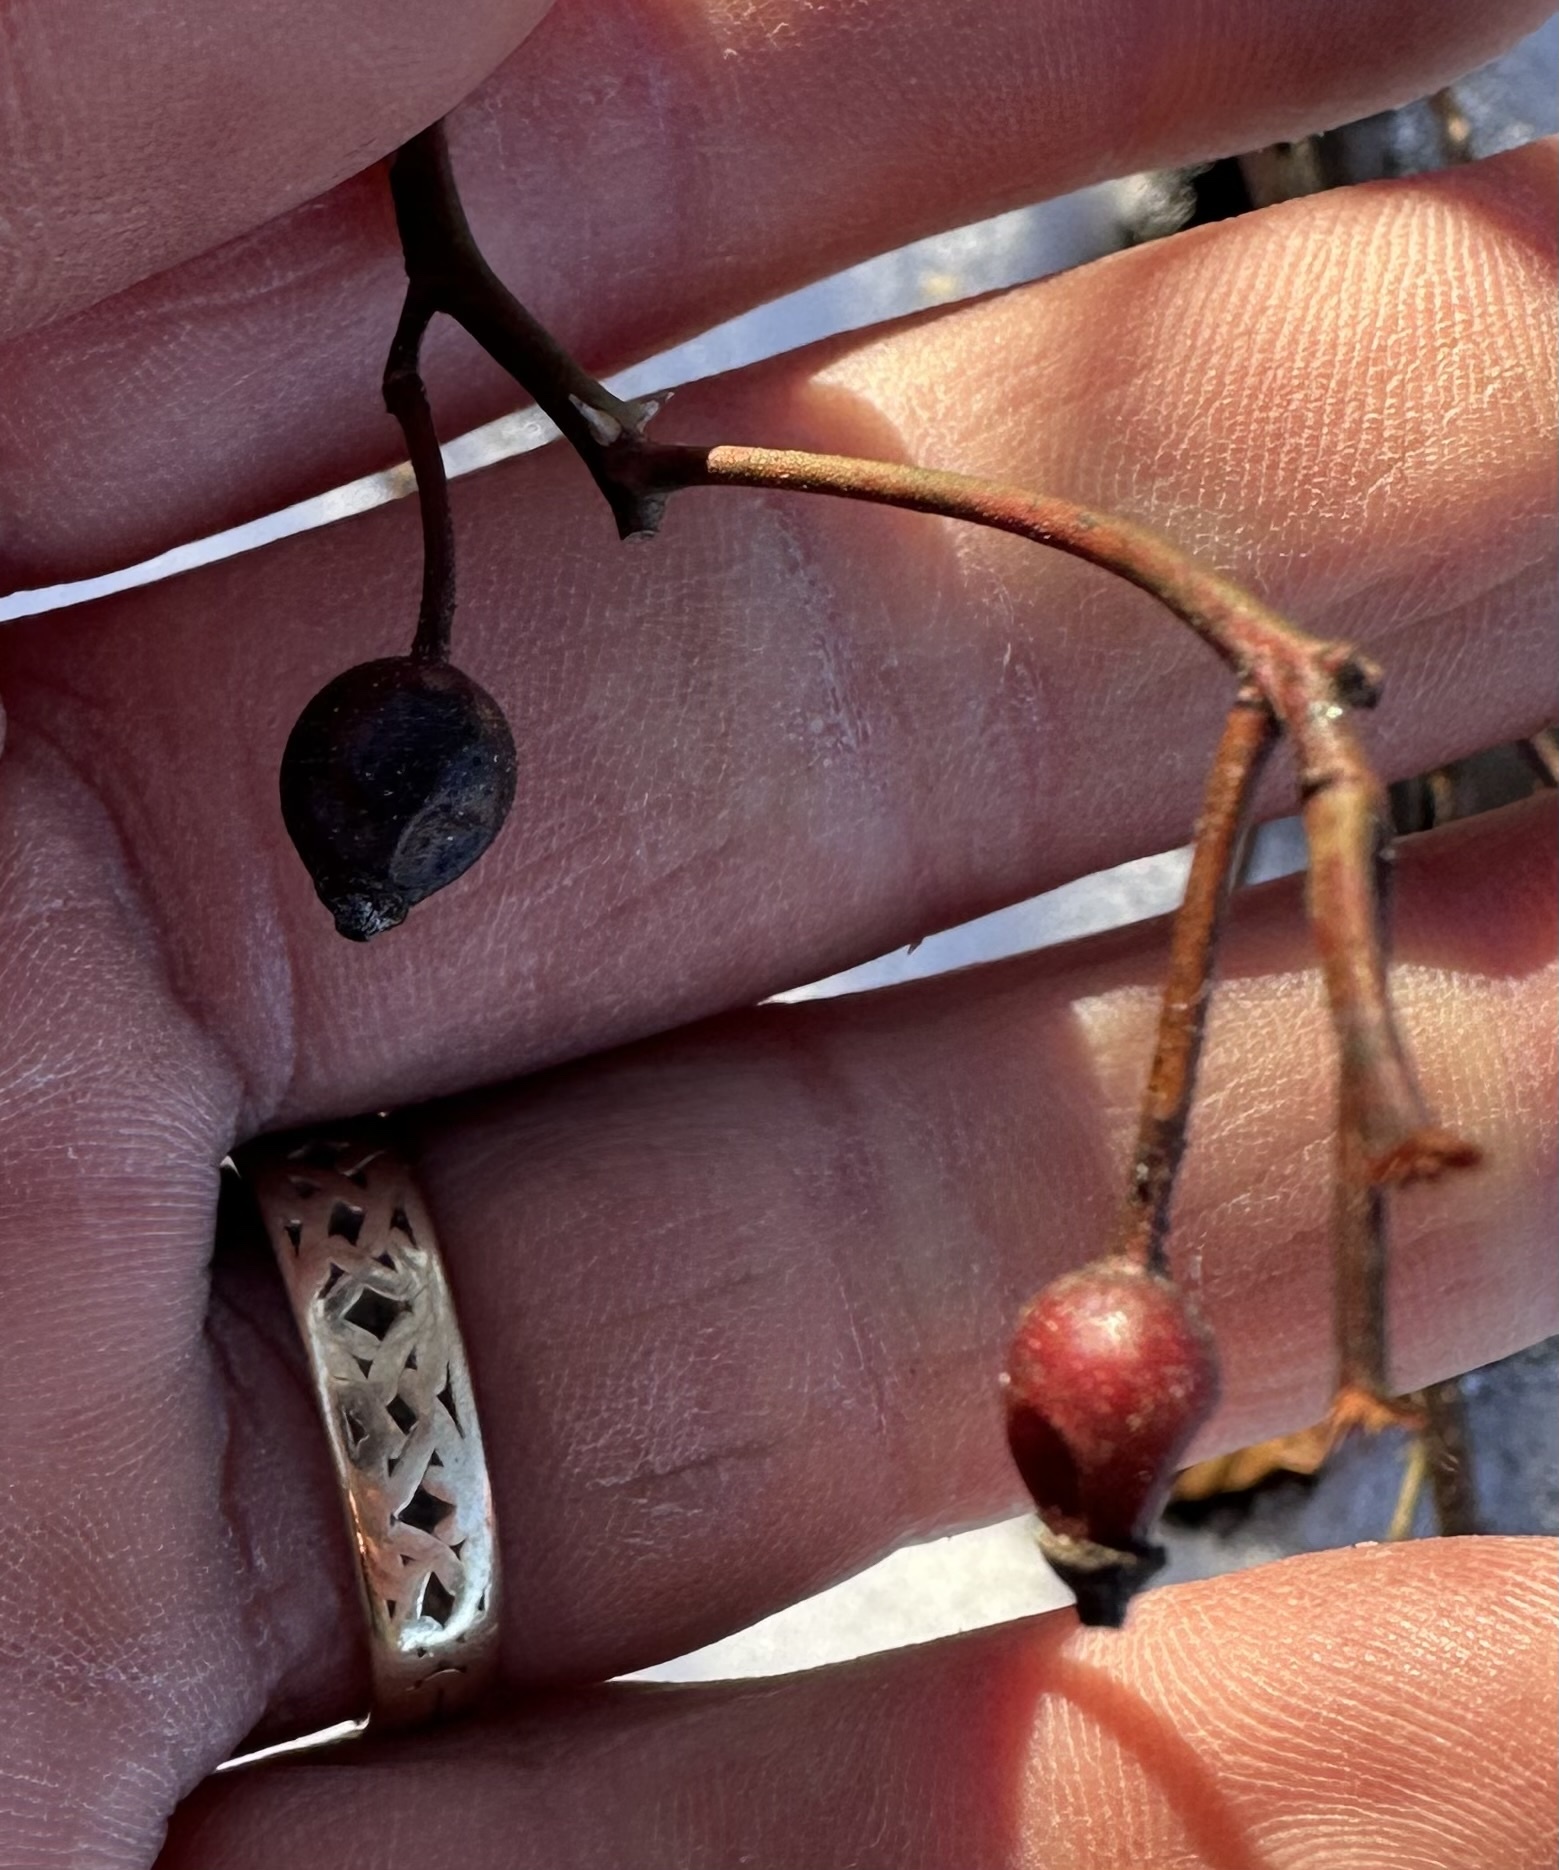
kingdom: Plantae
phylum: Tracheophyta
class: Magnoliopsida
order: Rosales
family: Rosaceae
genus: Rosa
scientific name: Rosa multiflora
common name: Multiflora rose
